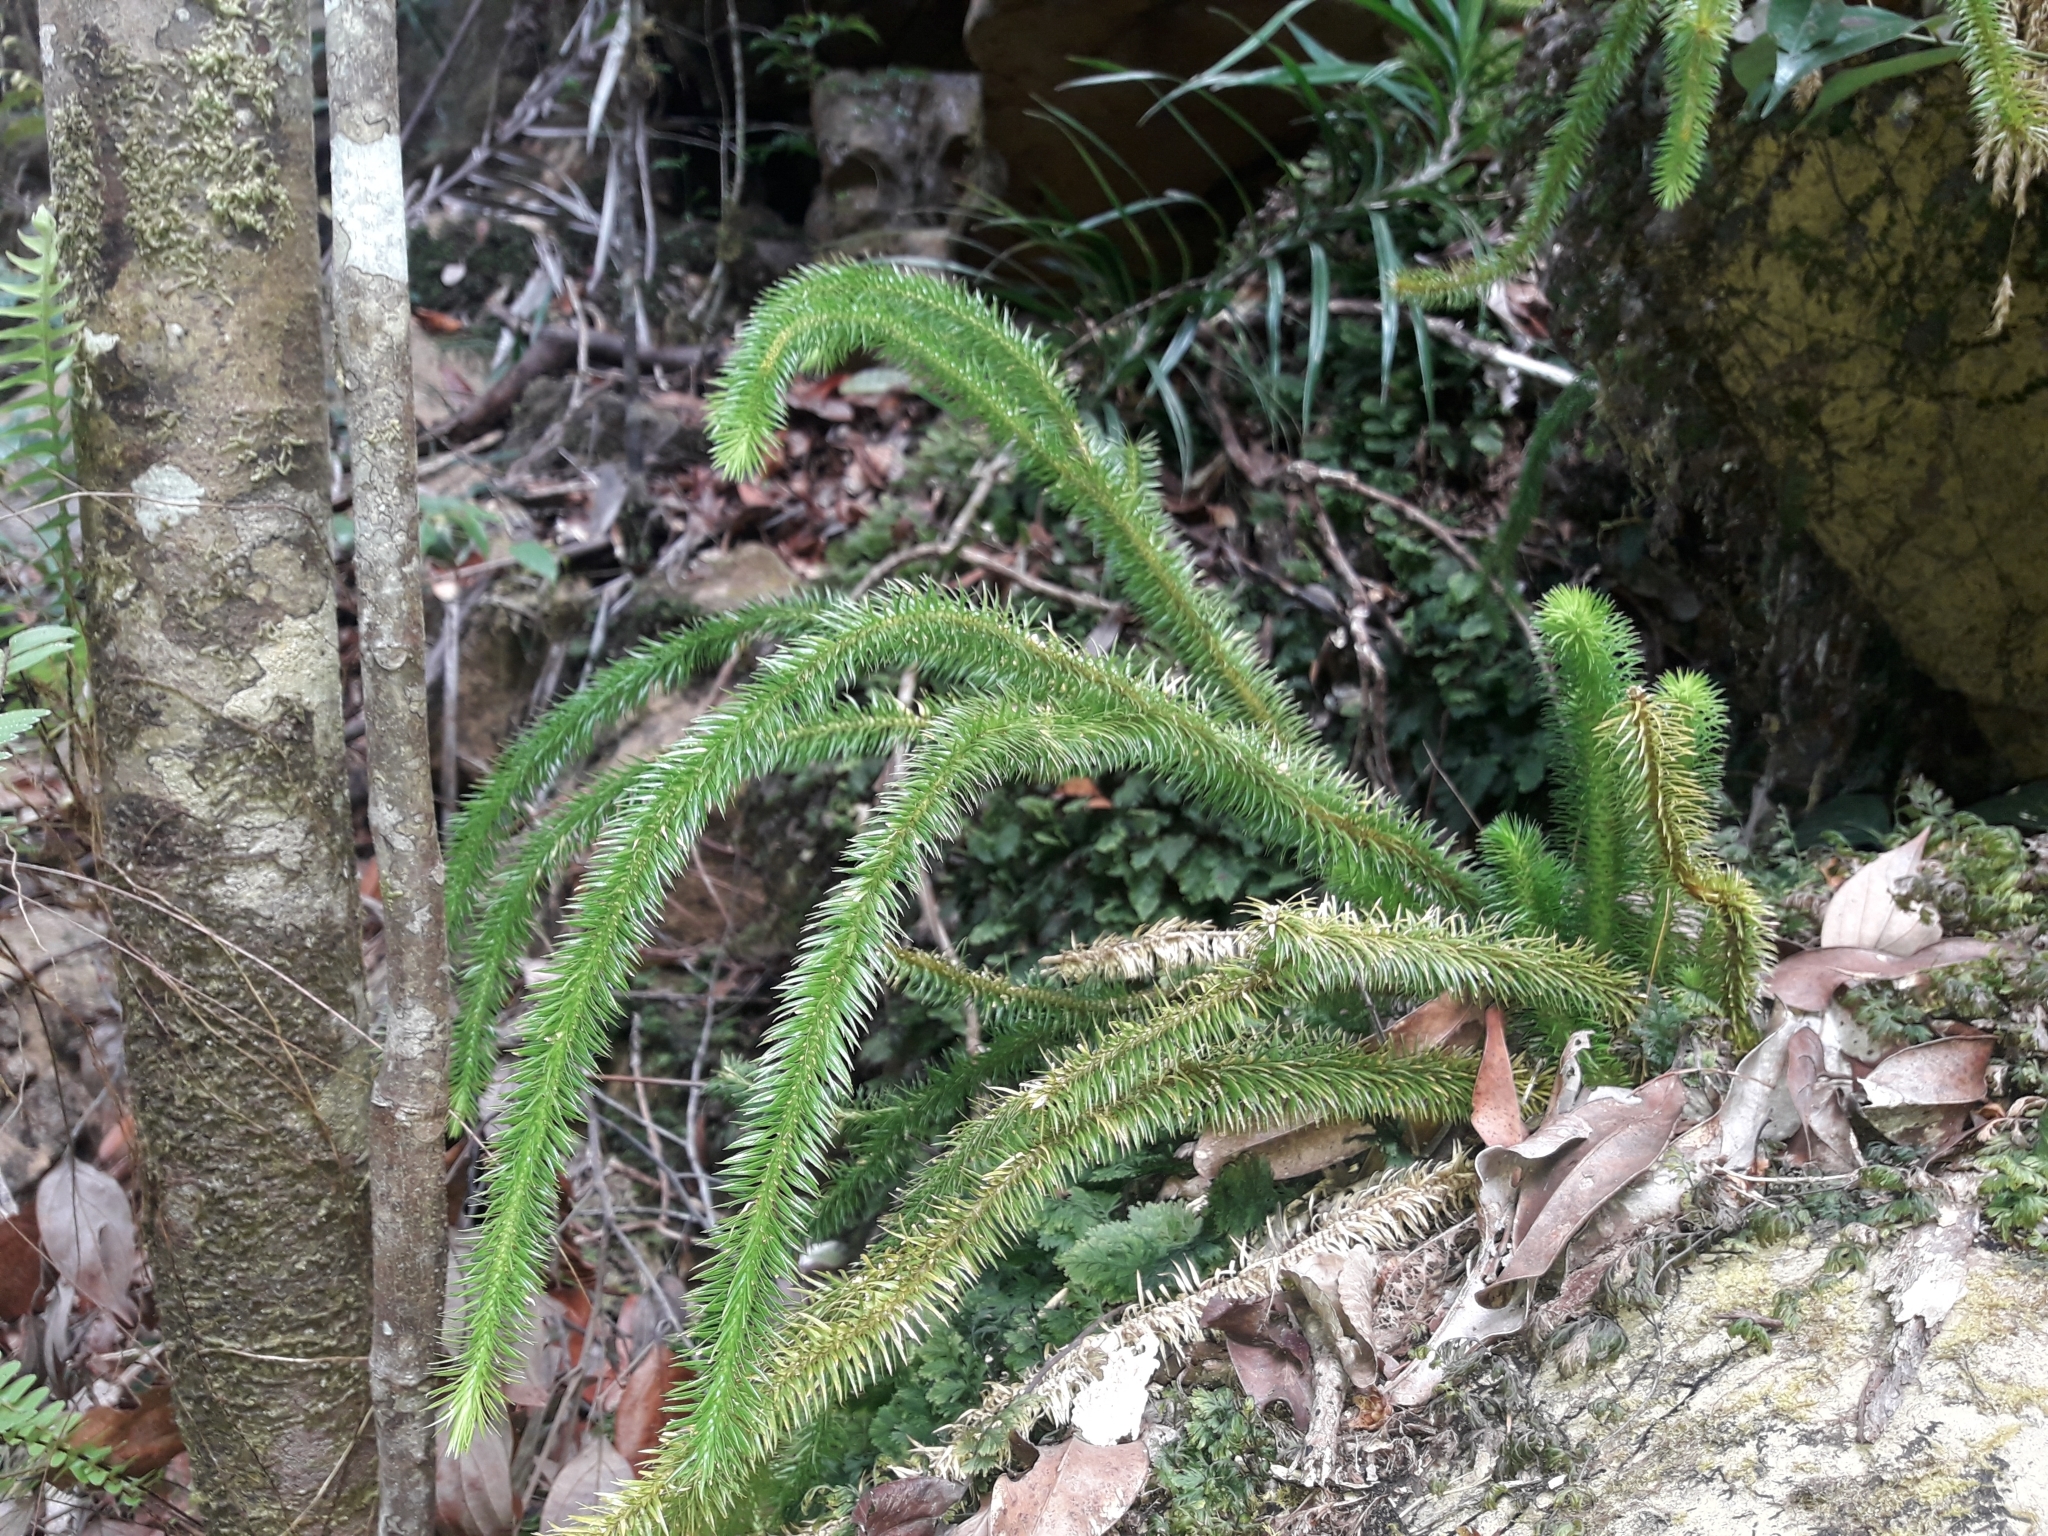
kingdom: Plantae
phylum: Tracheophyta
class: Lycopodiopsida
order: Lycopodiales
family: Lycopodiaceae
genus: Phlegmariurus
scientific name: Phlegmariurus squarrosus
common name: Rock tassel-fern
